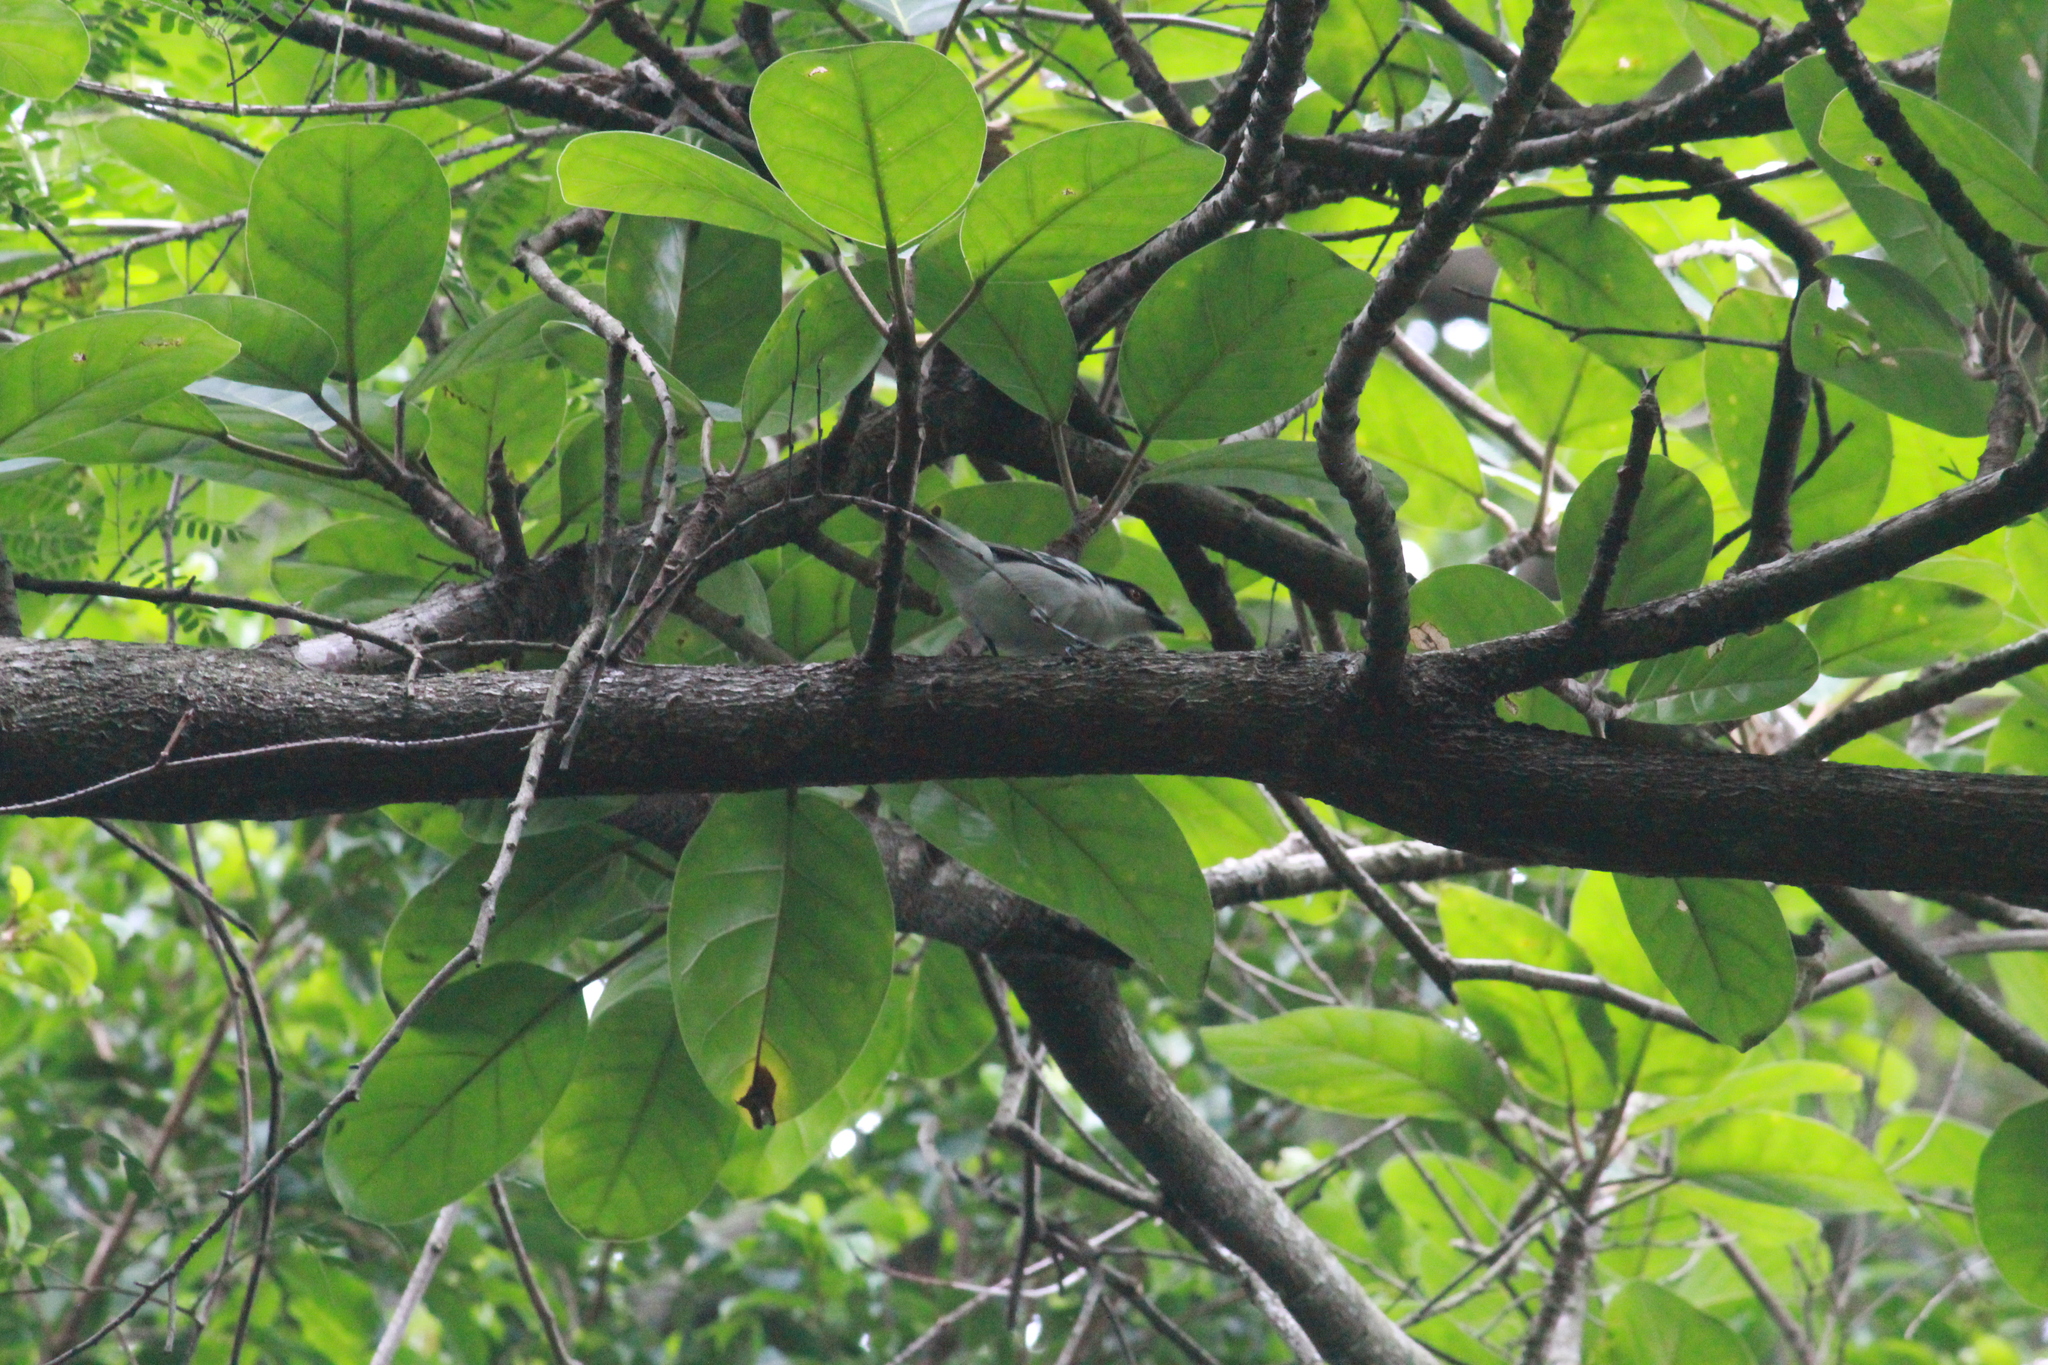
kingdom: Animalia
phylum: Chordata
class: Aves
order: Passeriformes
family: Malaconotidae
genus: Dryoscopus
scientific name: Dryoscopus cubla
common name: Black-backed puffback
